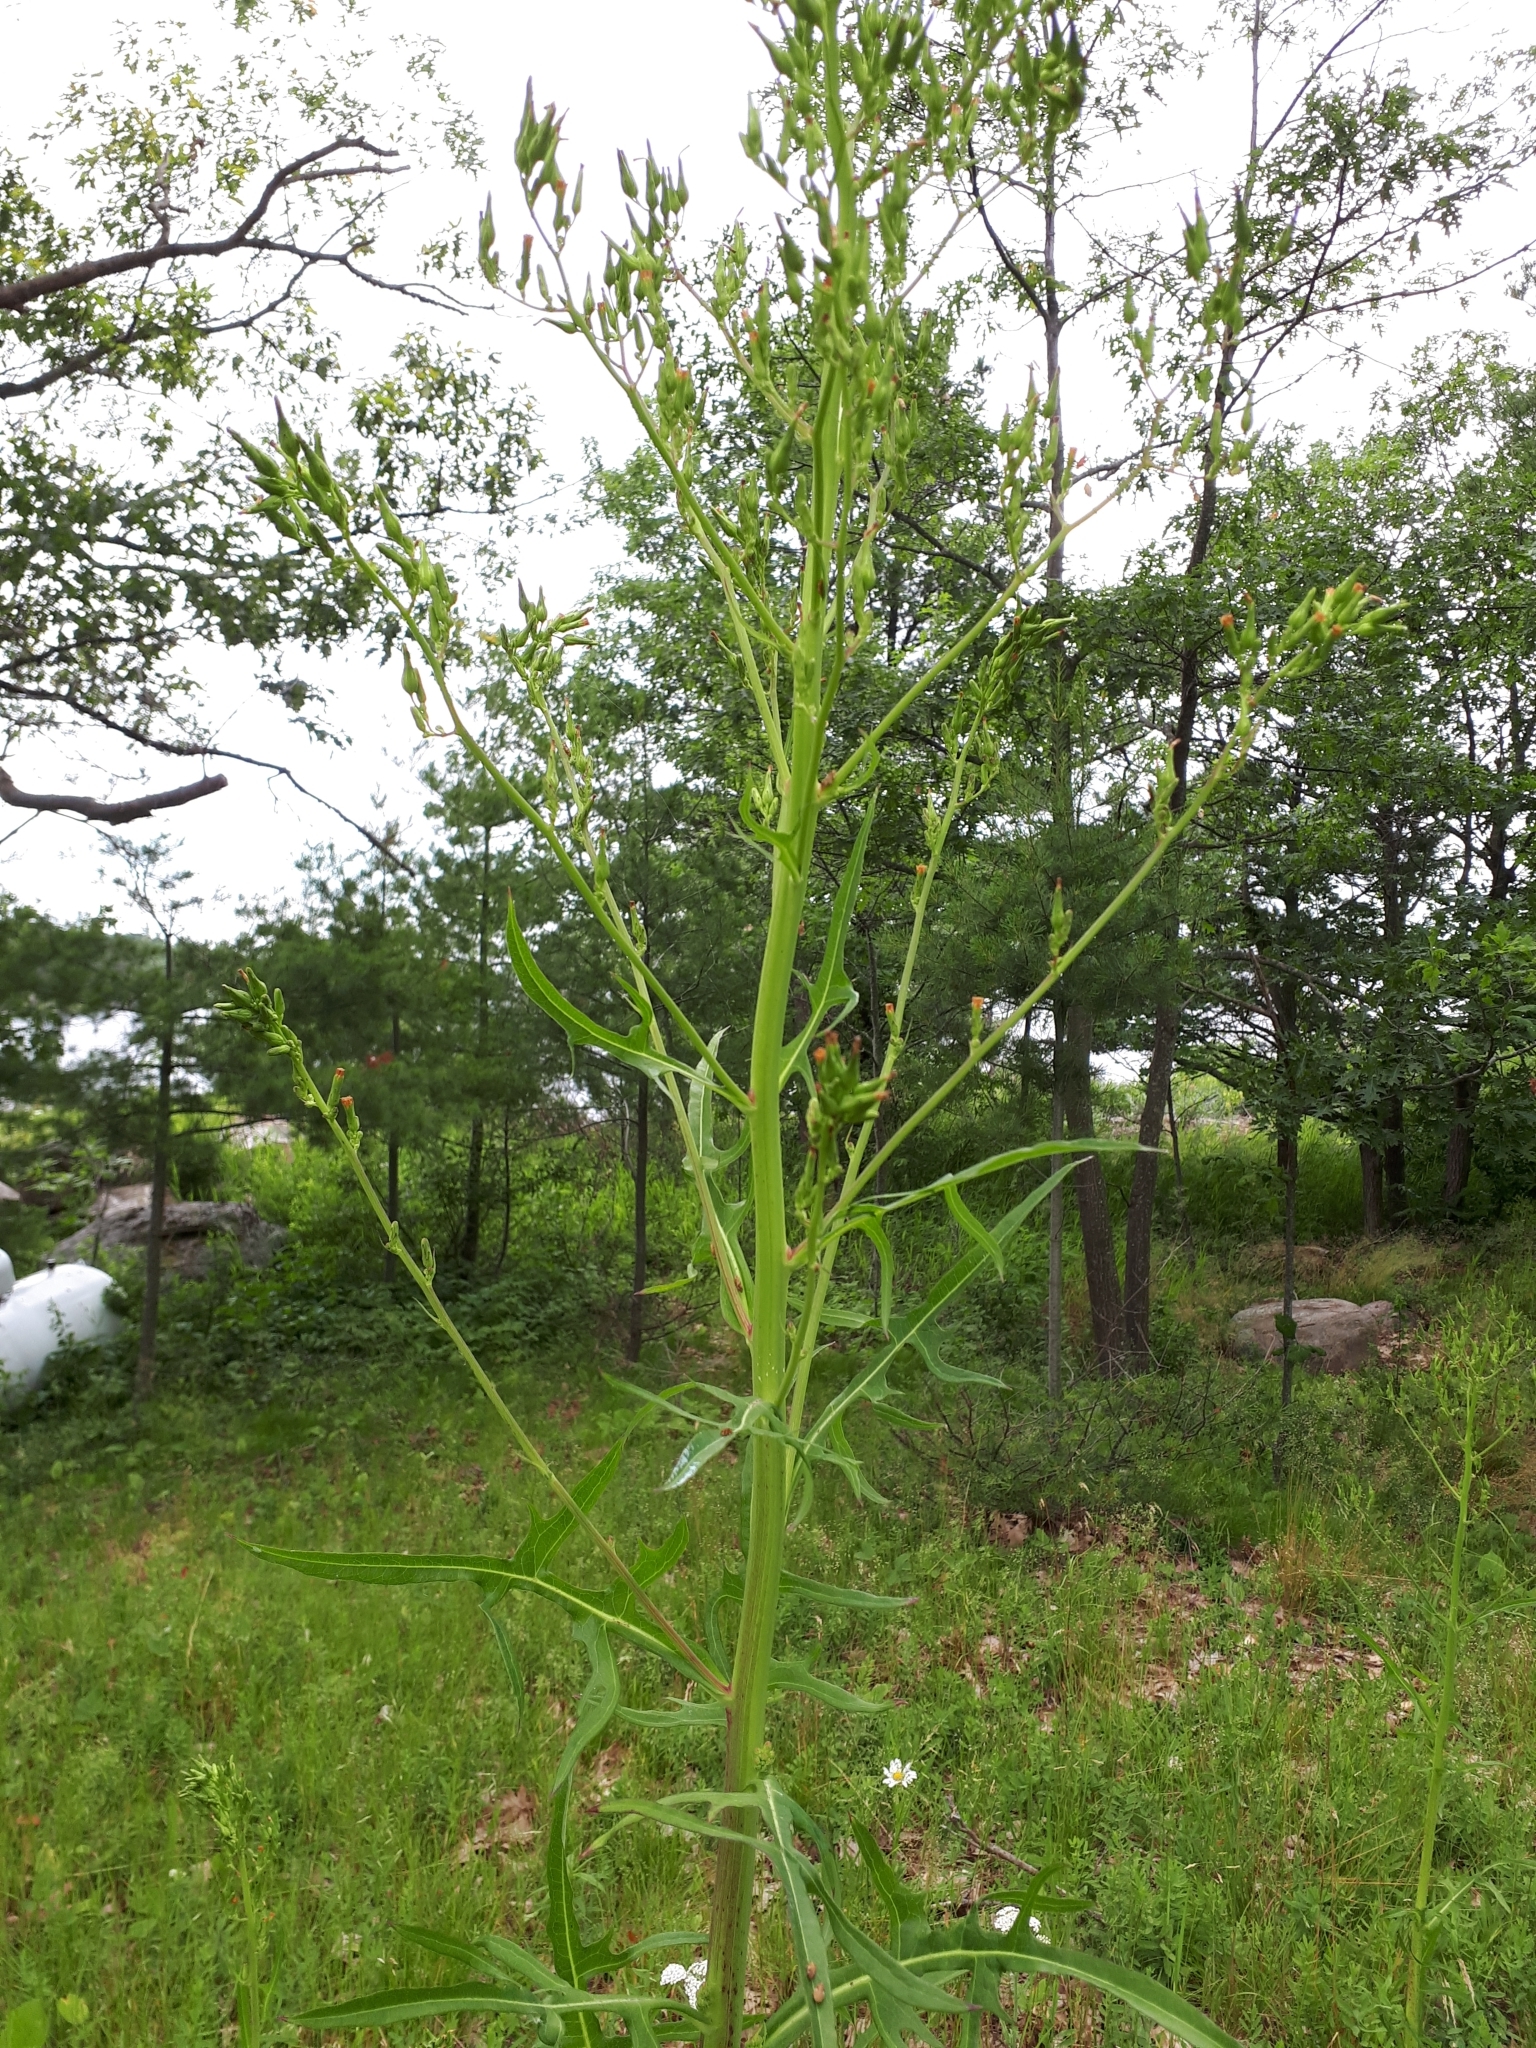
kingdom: Plantae
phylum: Tracheophyta
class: Magnoliopsida
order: Asterales
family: Asteraceae
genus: Lactuca
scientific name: Lactuca canadensis
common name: Canada lettuce
